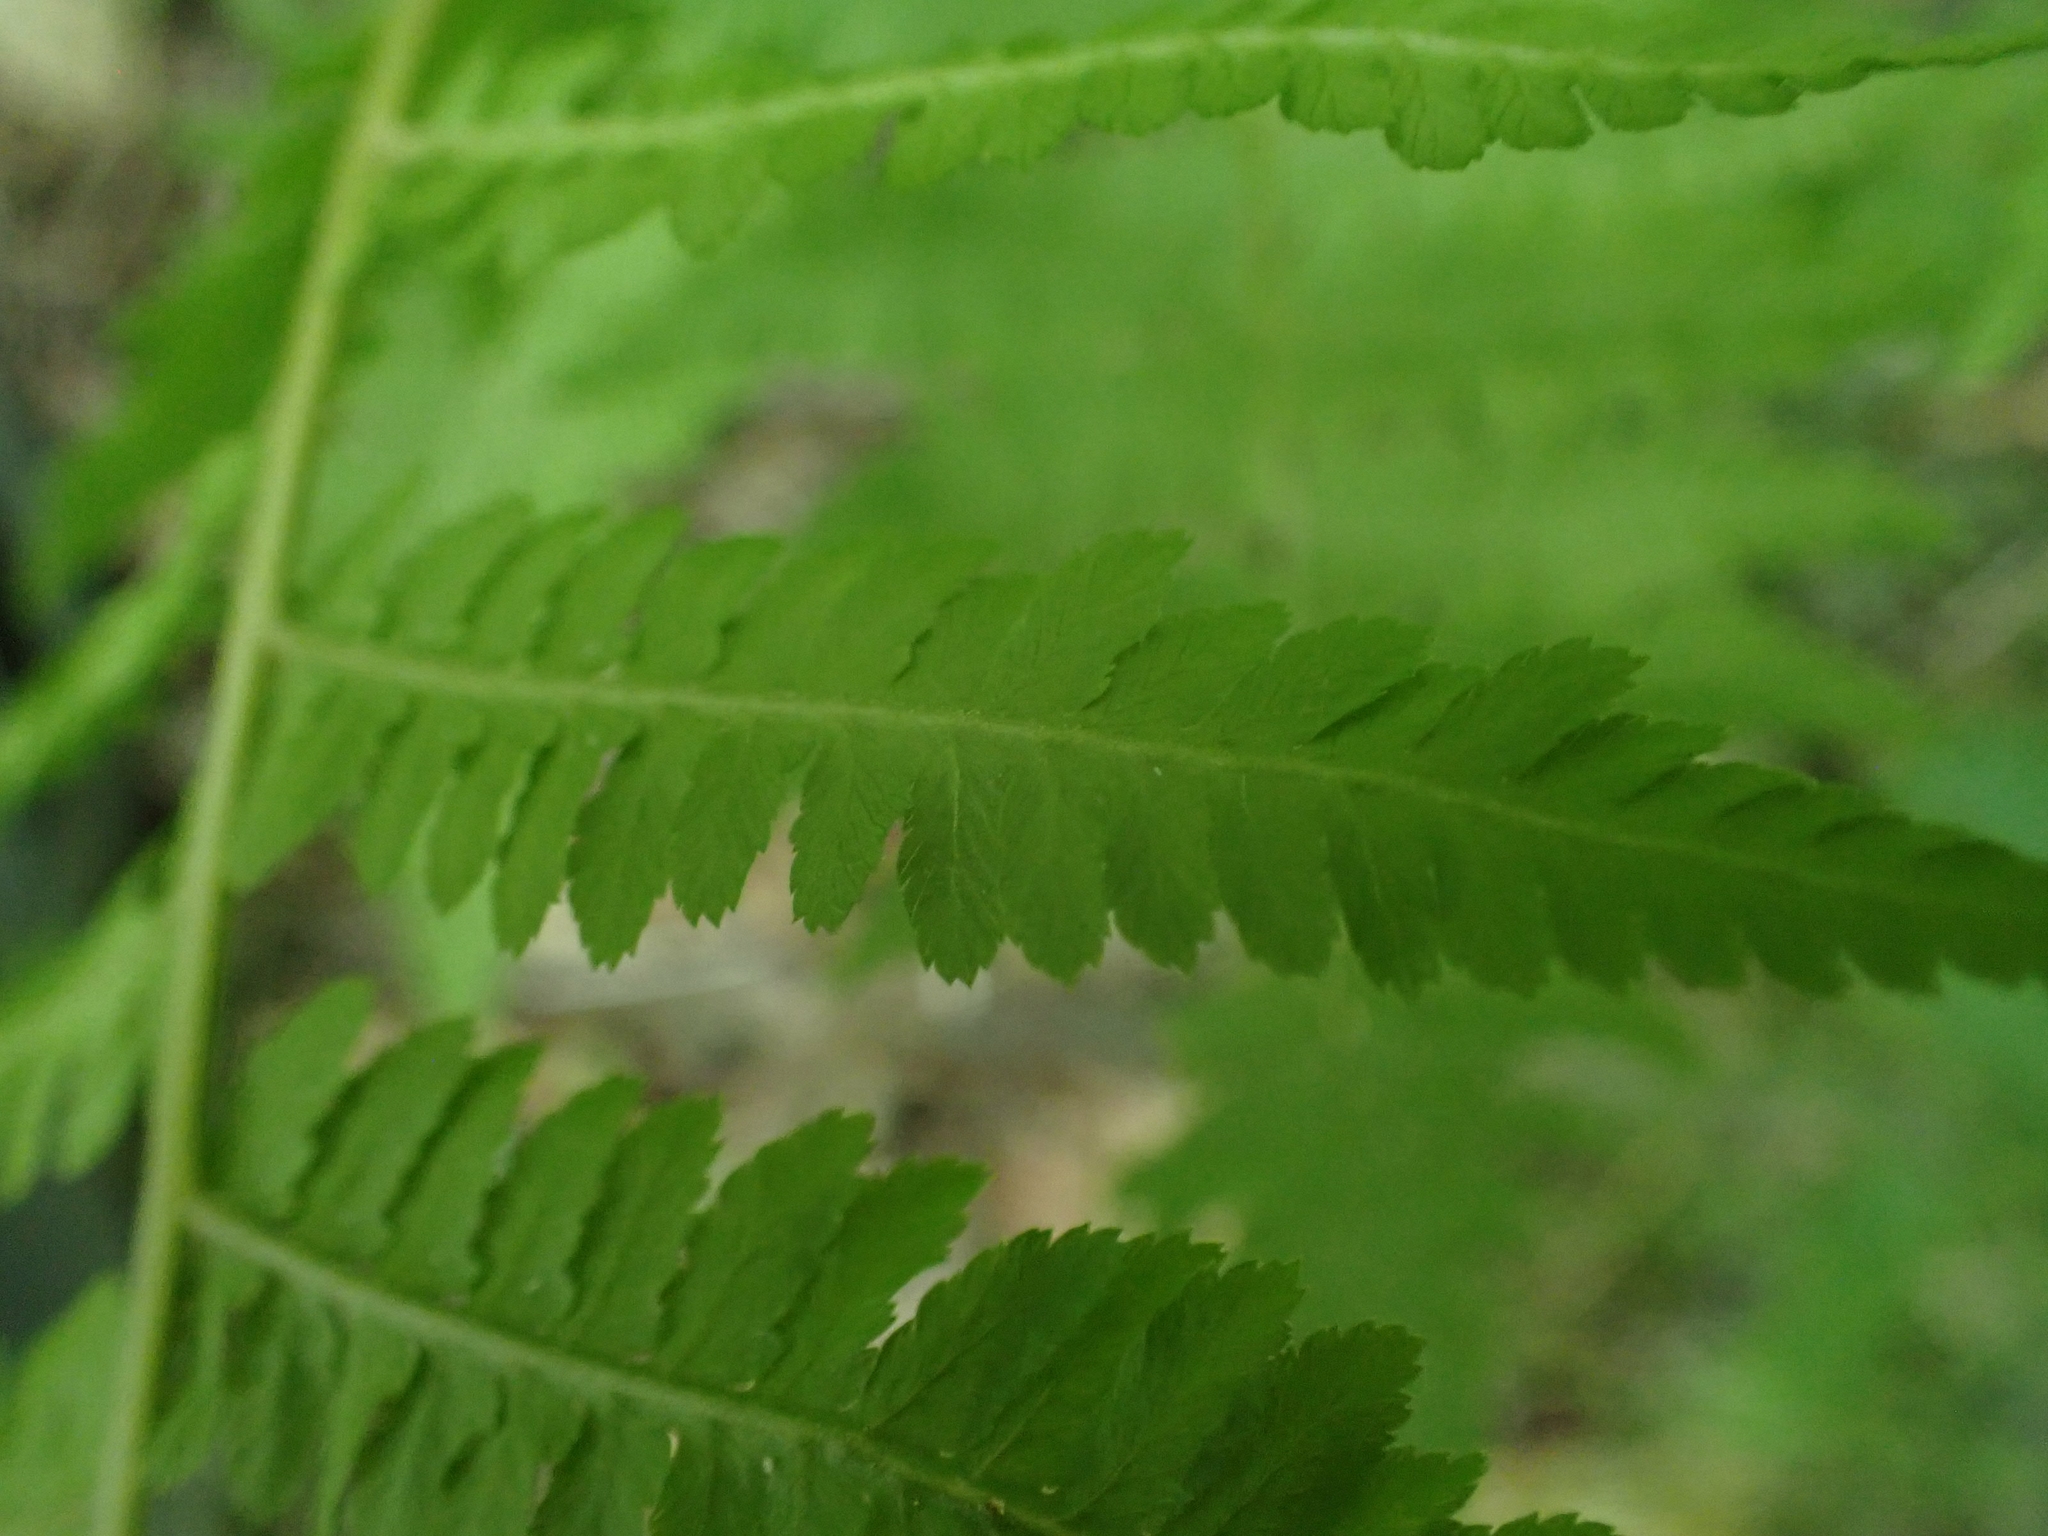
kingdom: Plantae
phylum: Tracheophyta
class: Polypodiopsida
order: Polypodiales
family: Athyriaceae
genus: Athyrium
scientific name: Athyrium angustum
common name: Northern lady fern
